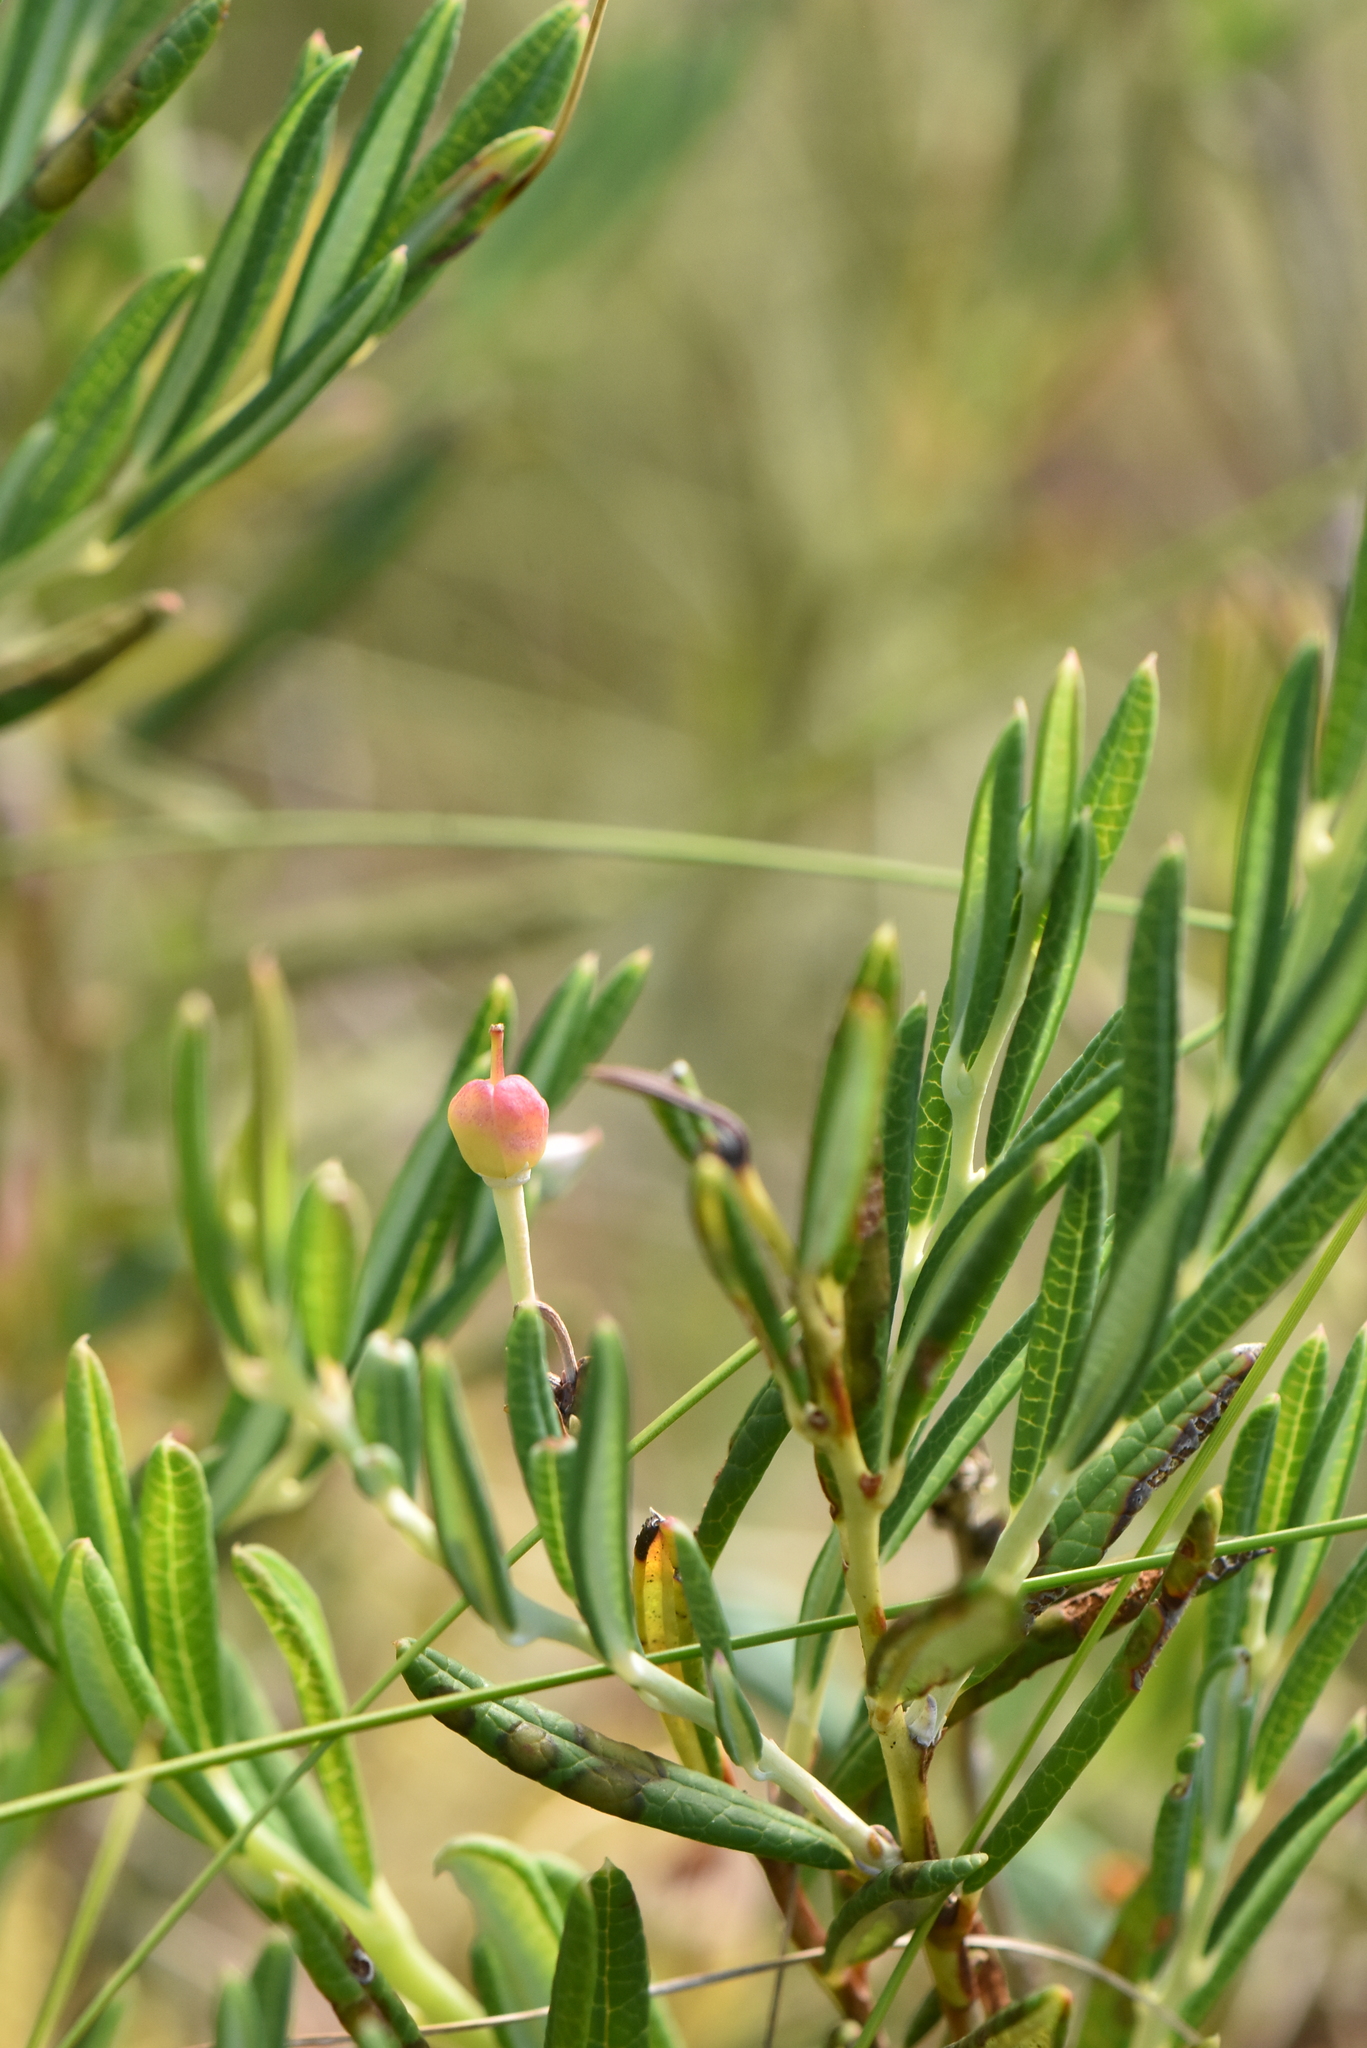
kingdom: Plantae
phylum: Tracheophyta
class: Magnoliopsida
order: Ericales
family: Ericaceae
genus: Andromeda
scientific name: Andromeda polifolia
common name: Bog-rosemary
